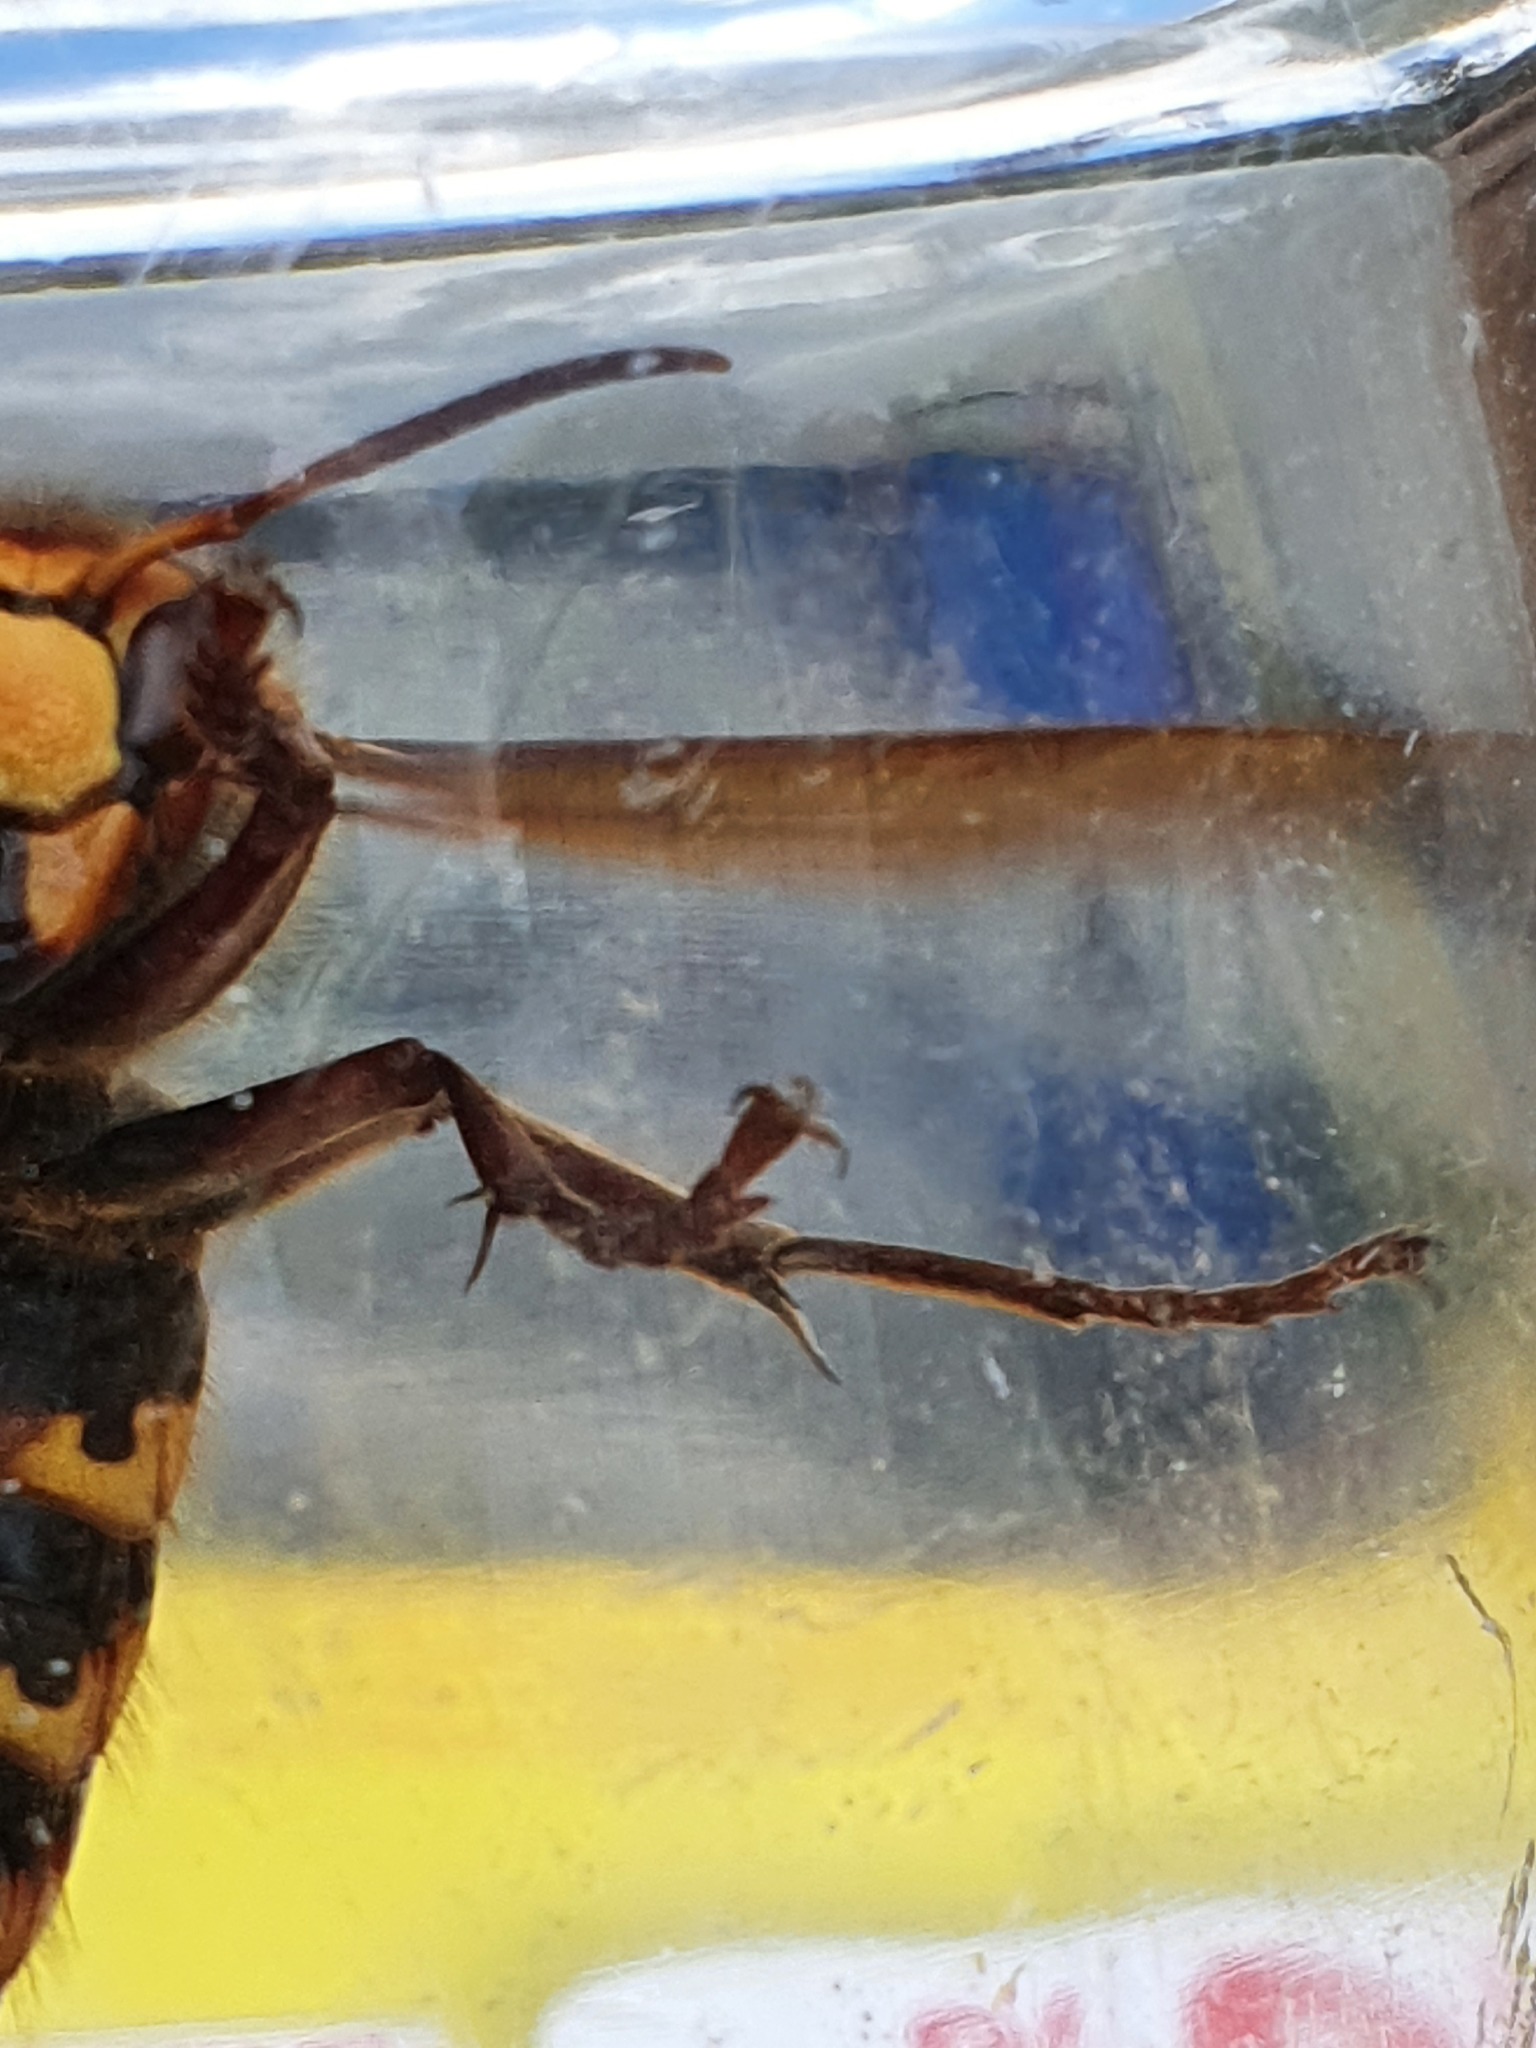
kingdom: Animalia
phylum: Arthropoda
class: Insecta
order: Hymenoptera
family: Vespidae
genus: Vespa
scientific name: Vespa crabro
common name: Hornet
